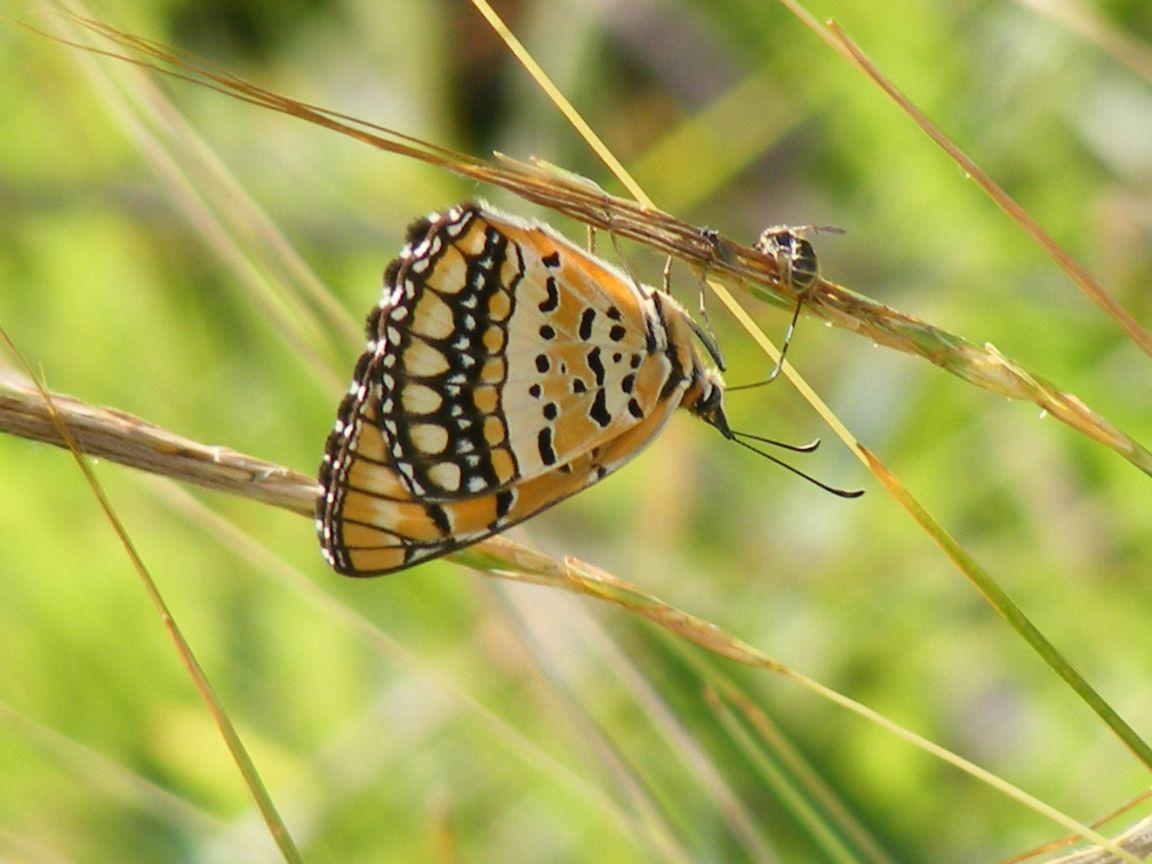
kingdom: Animalia
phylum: Arthropoda
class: Insecta
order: Lepidoptera
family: Nymphalidae
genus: Byblia
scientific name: Byblia ilithyia
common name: Spotted joker
